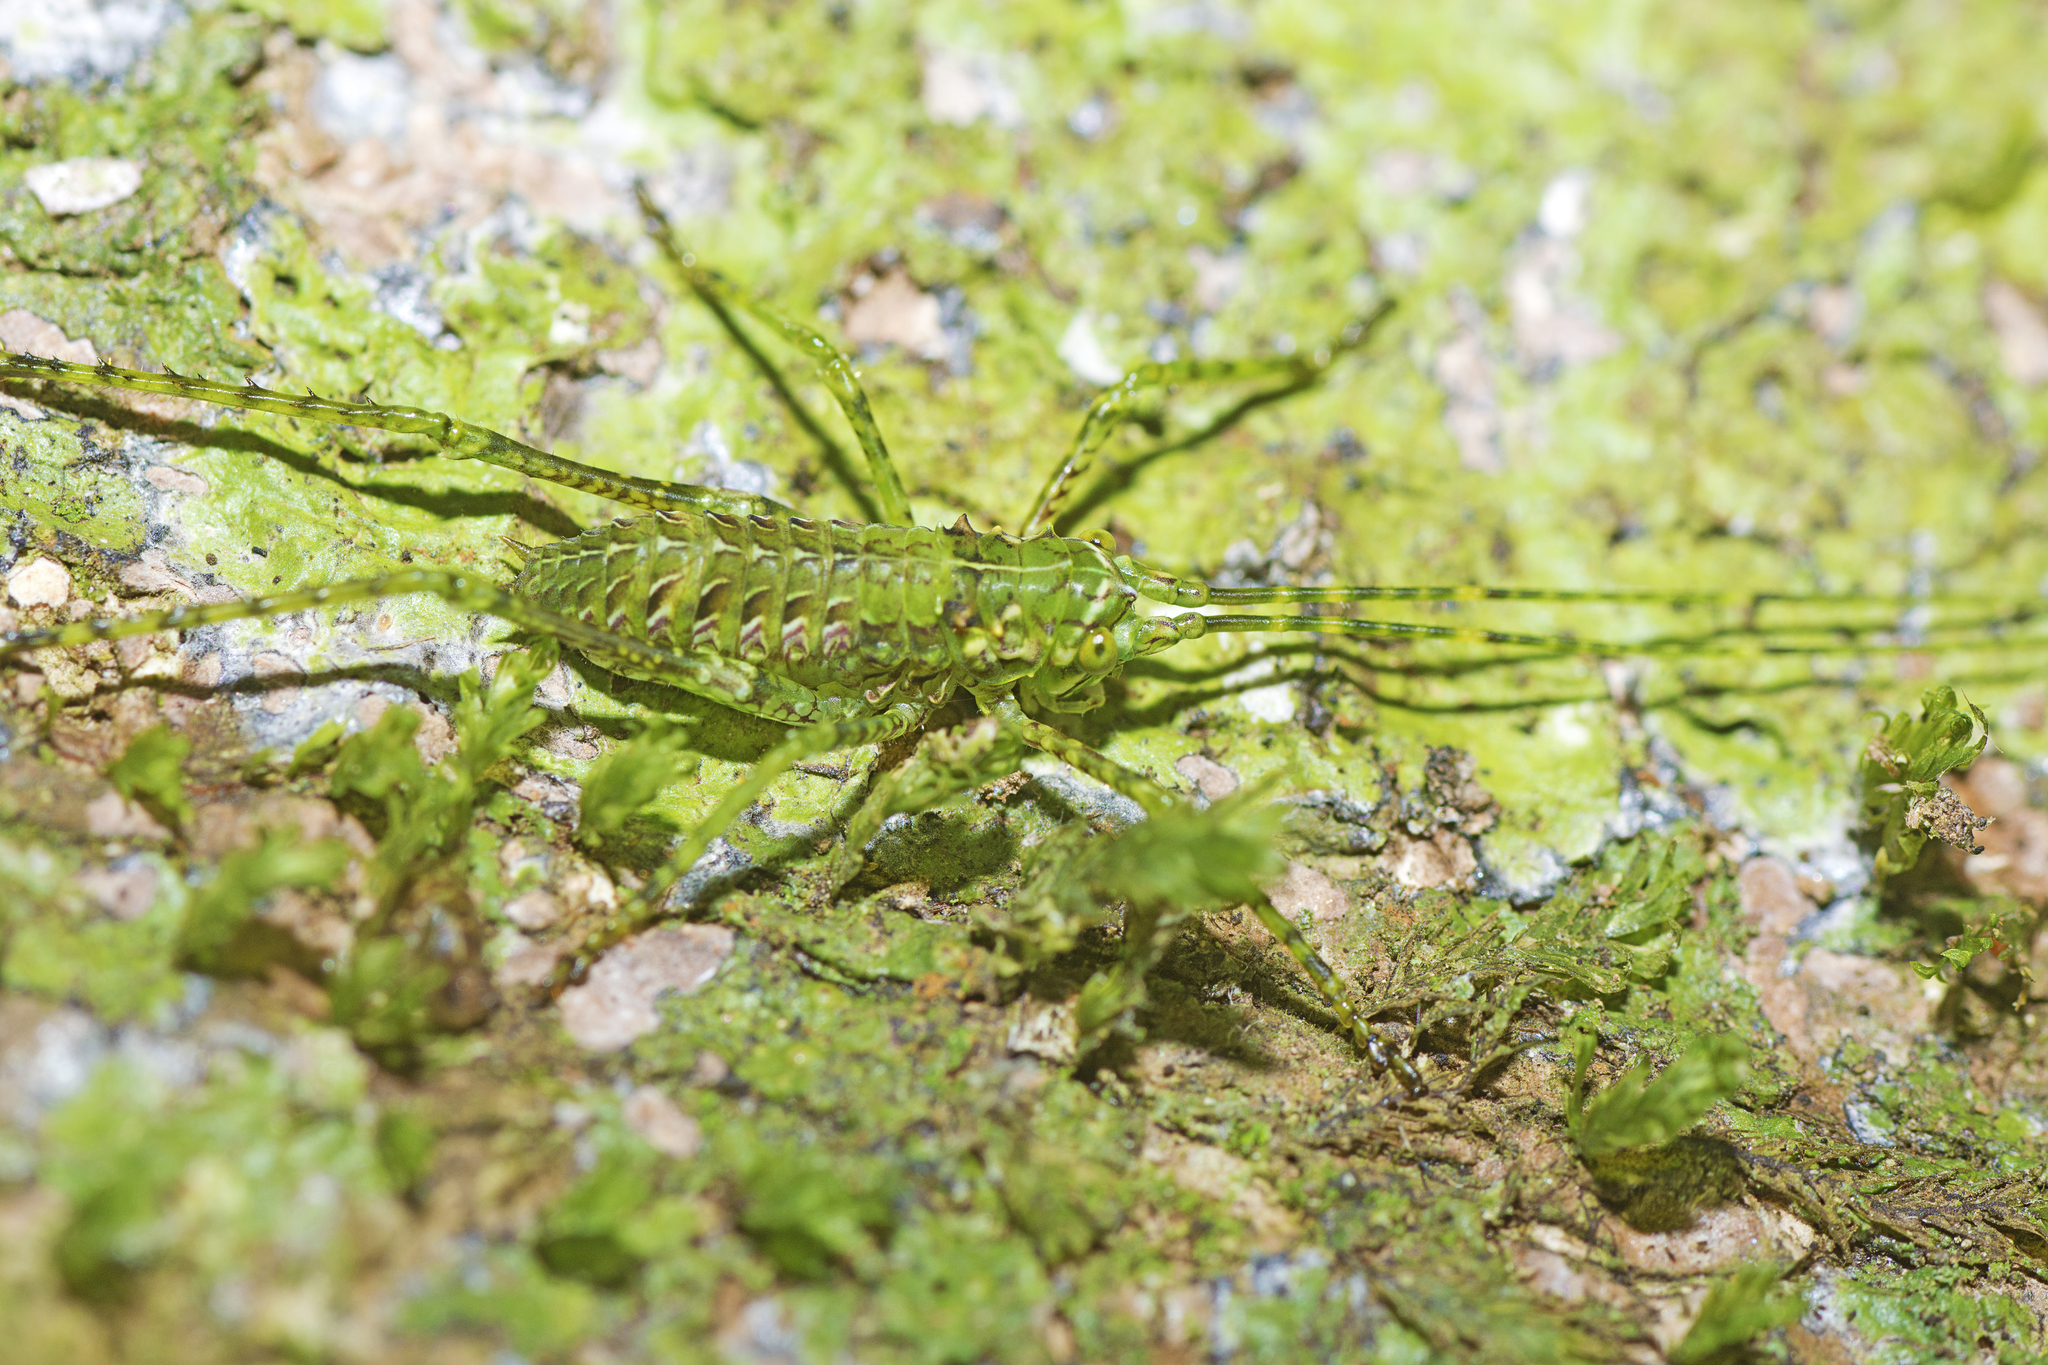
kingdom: Animalia
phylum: Arthropoda
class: Insecta
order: Orthoptera
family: Tettigoniidae
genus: Phricta
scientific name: Phricta zwicka
